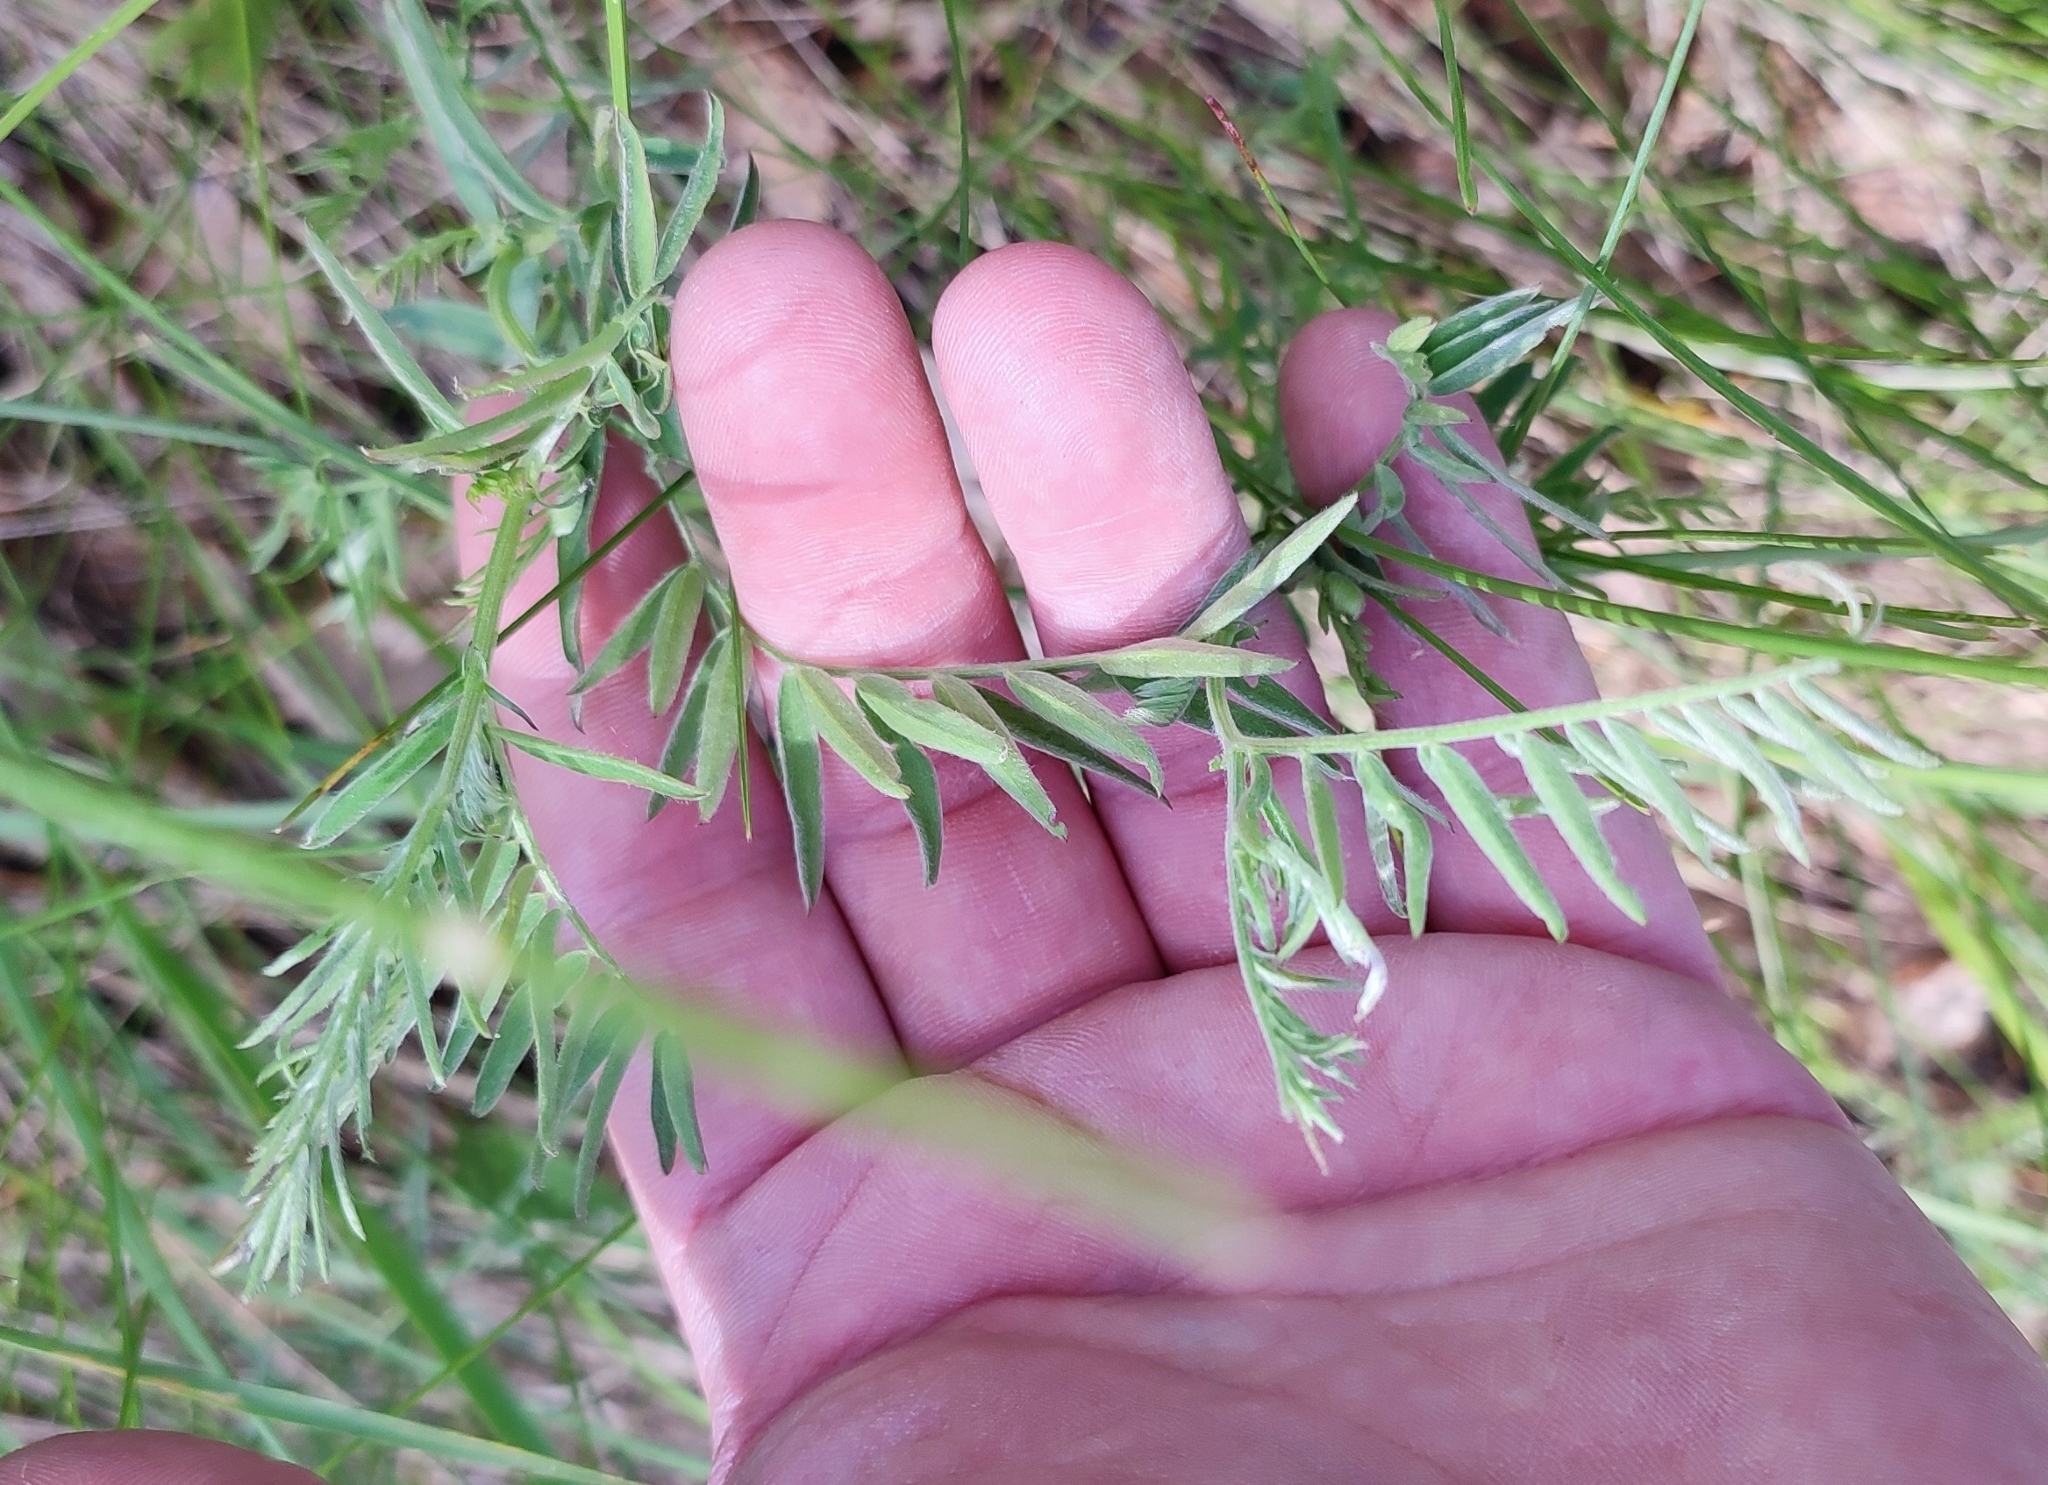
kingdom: Plantae
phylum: Tracheophyta
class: Magnoliopsida
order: Fabales
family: Fabaceae
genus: Vicia
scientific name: Vicia cracca
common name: Bird vetch
